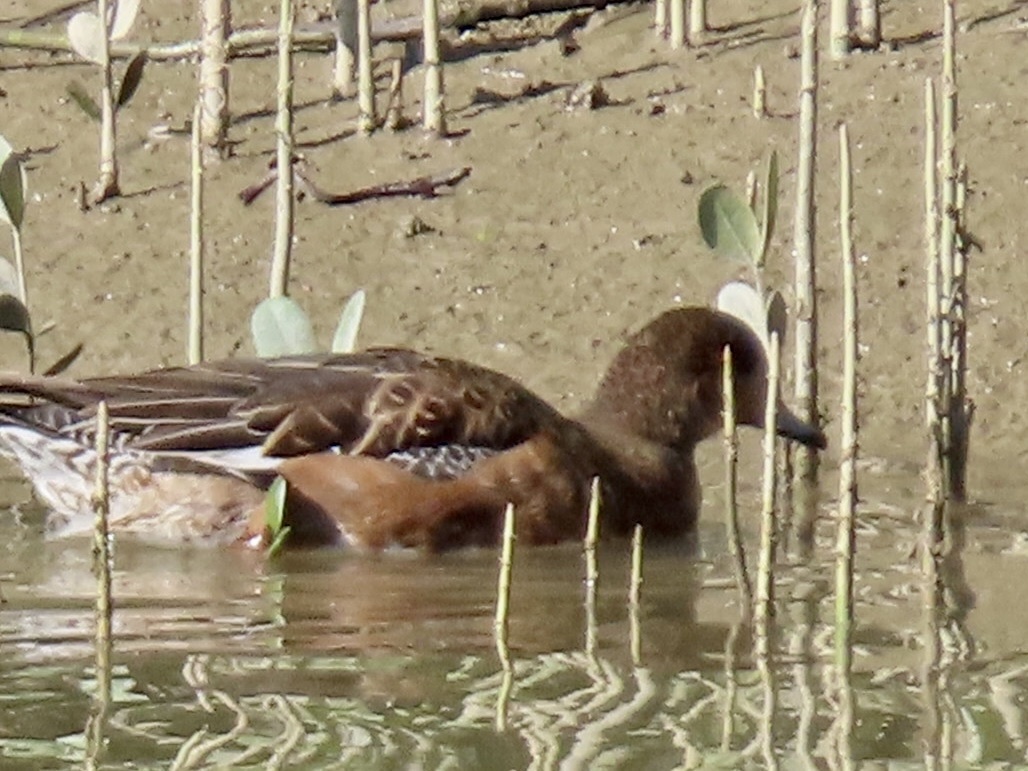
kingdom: Animalia
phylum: Chordata
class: Aves
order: Anseriformes
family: Anatidae
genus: Mareca
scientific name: Mareca penelope
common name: Eurasian wigeon
